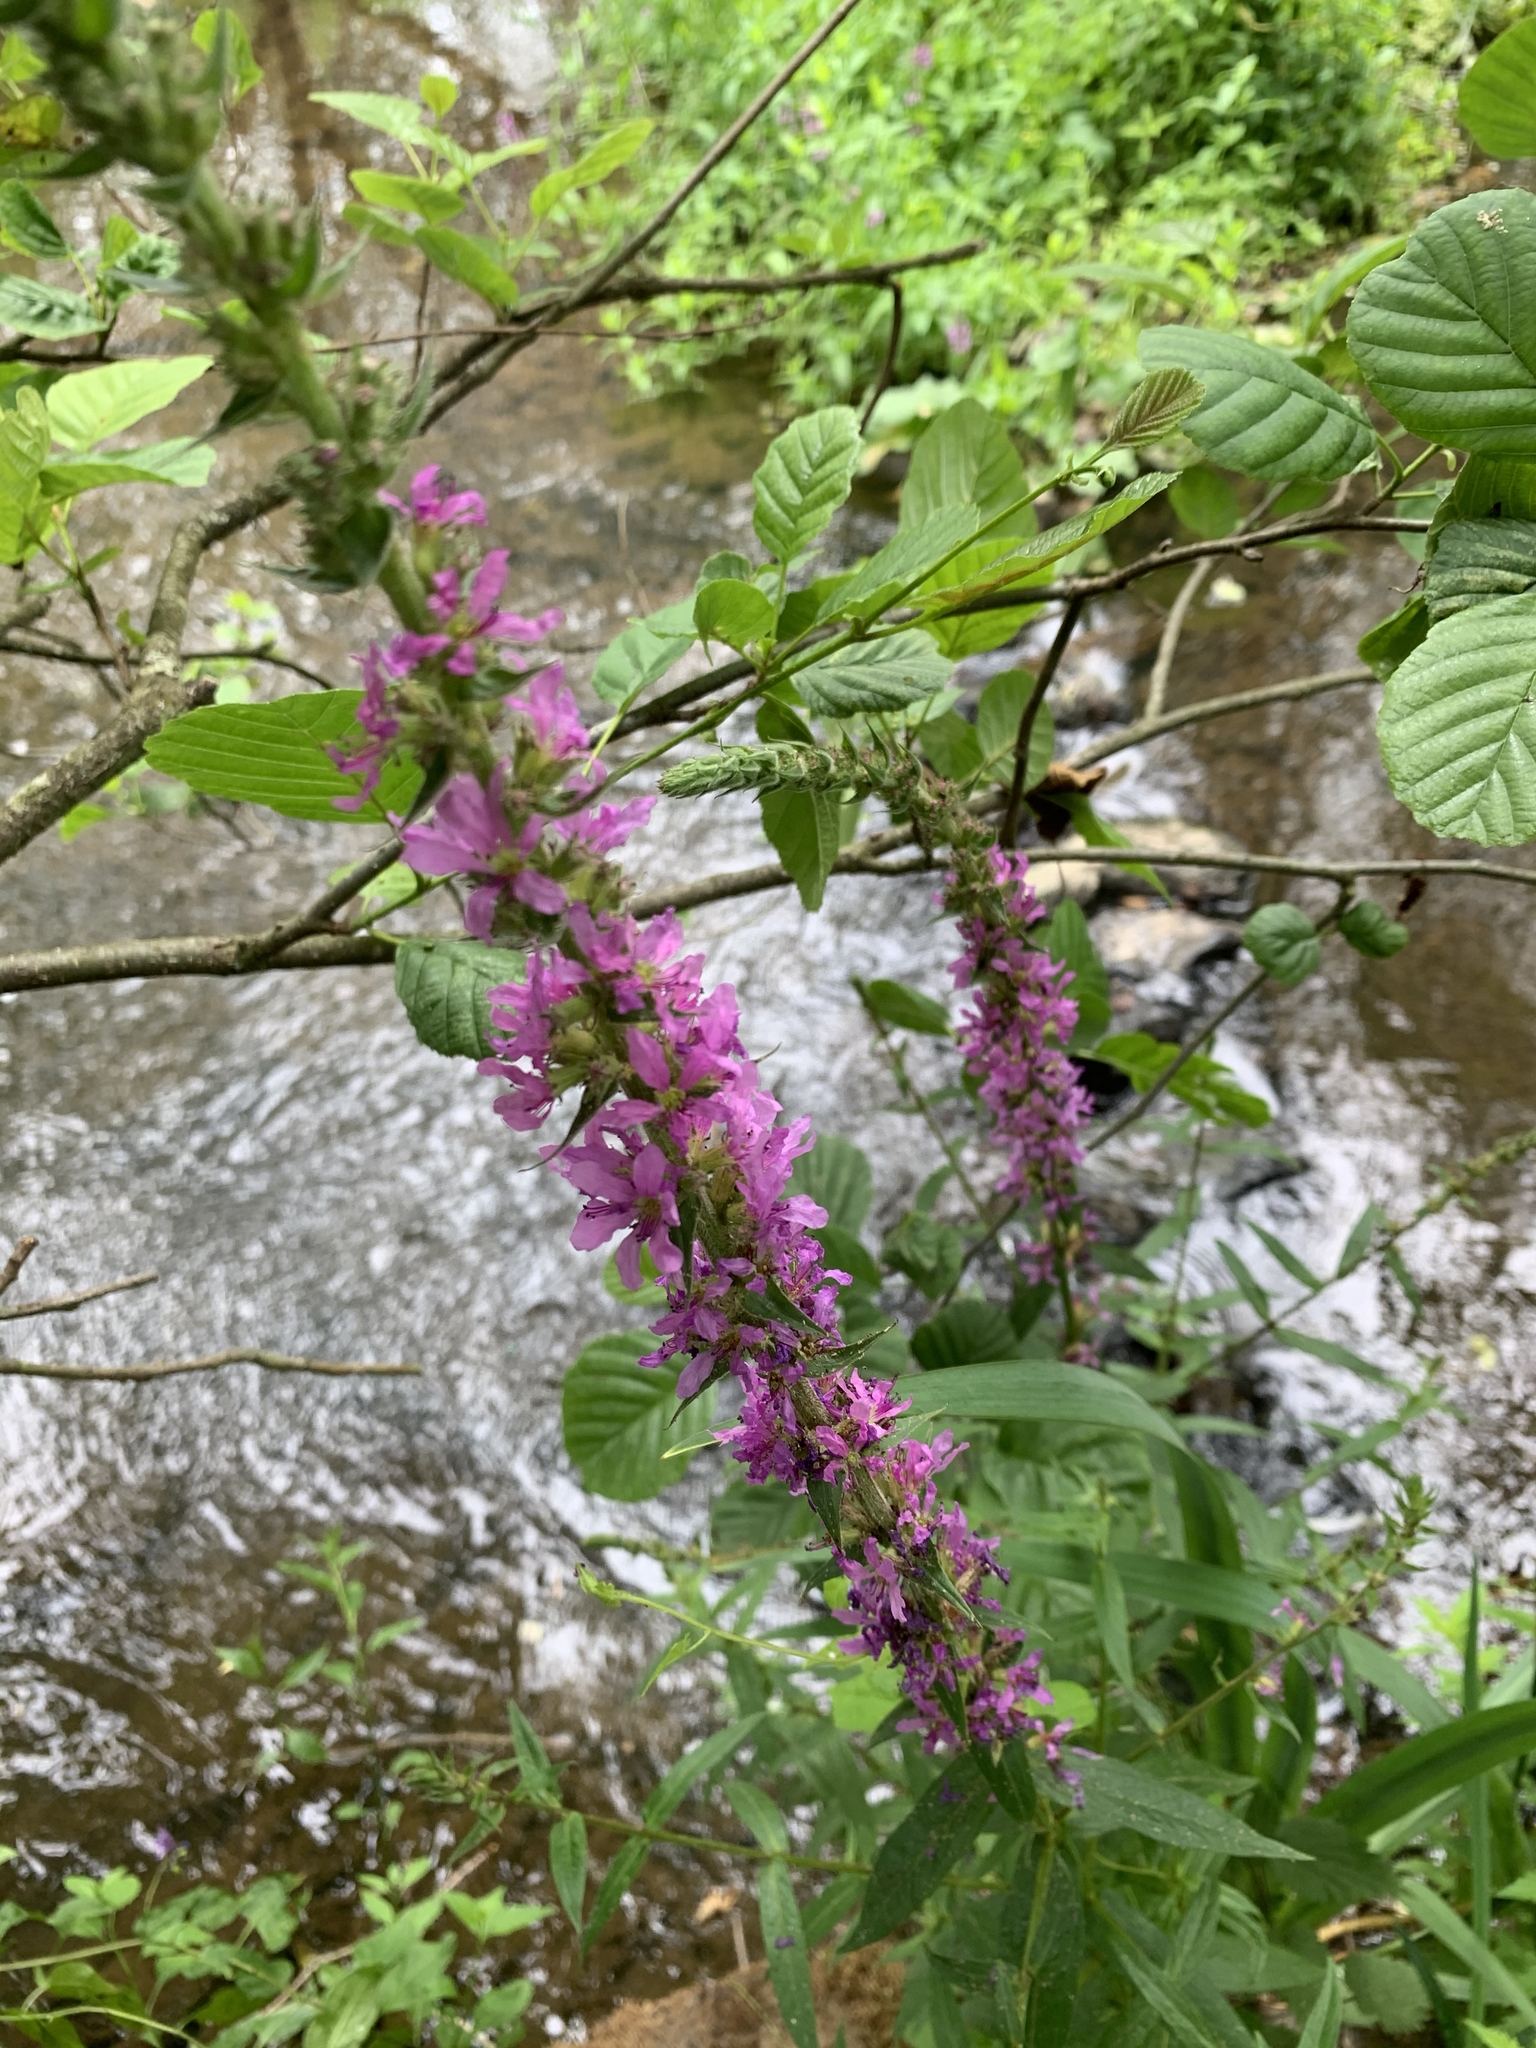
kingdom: Plantae
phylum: Tracheophyta
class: Magnoliopsida
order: Myrtales
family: Lythraceae
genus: Lythrum
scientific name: Lythrum salicaria
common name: Purple loosestrife
